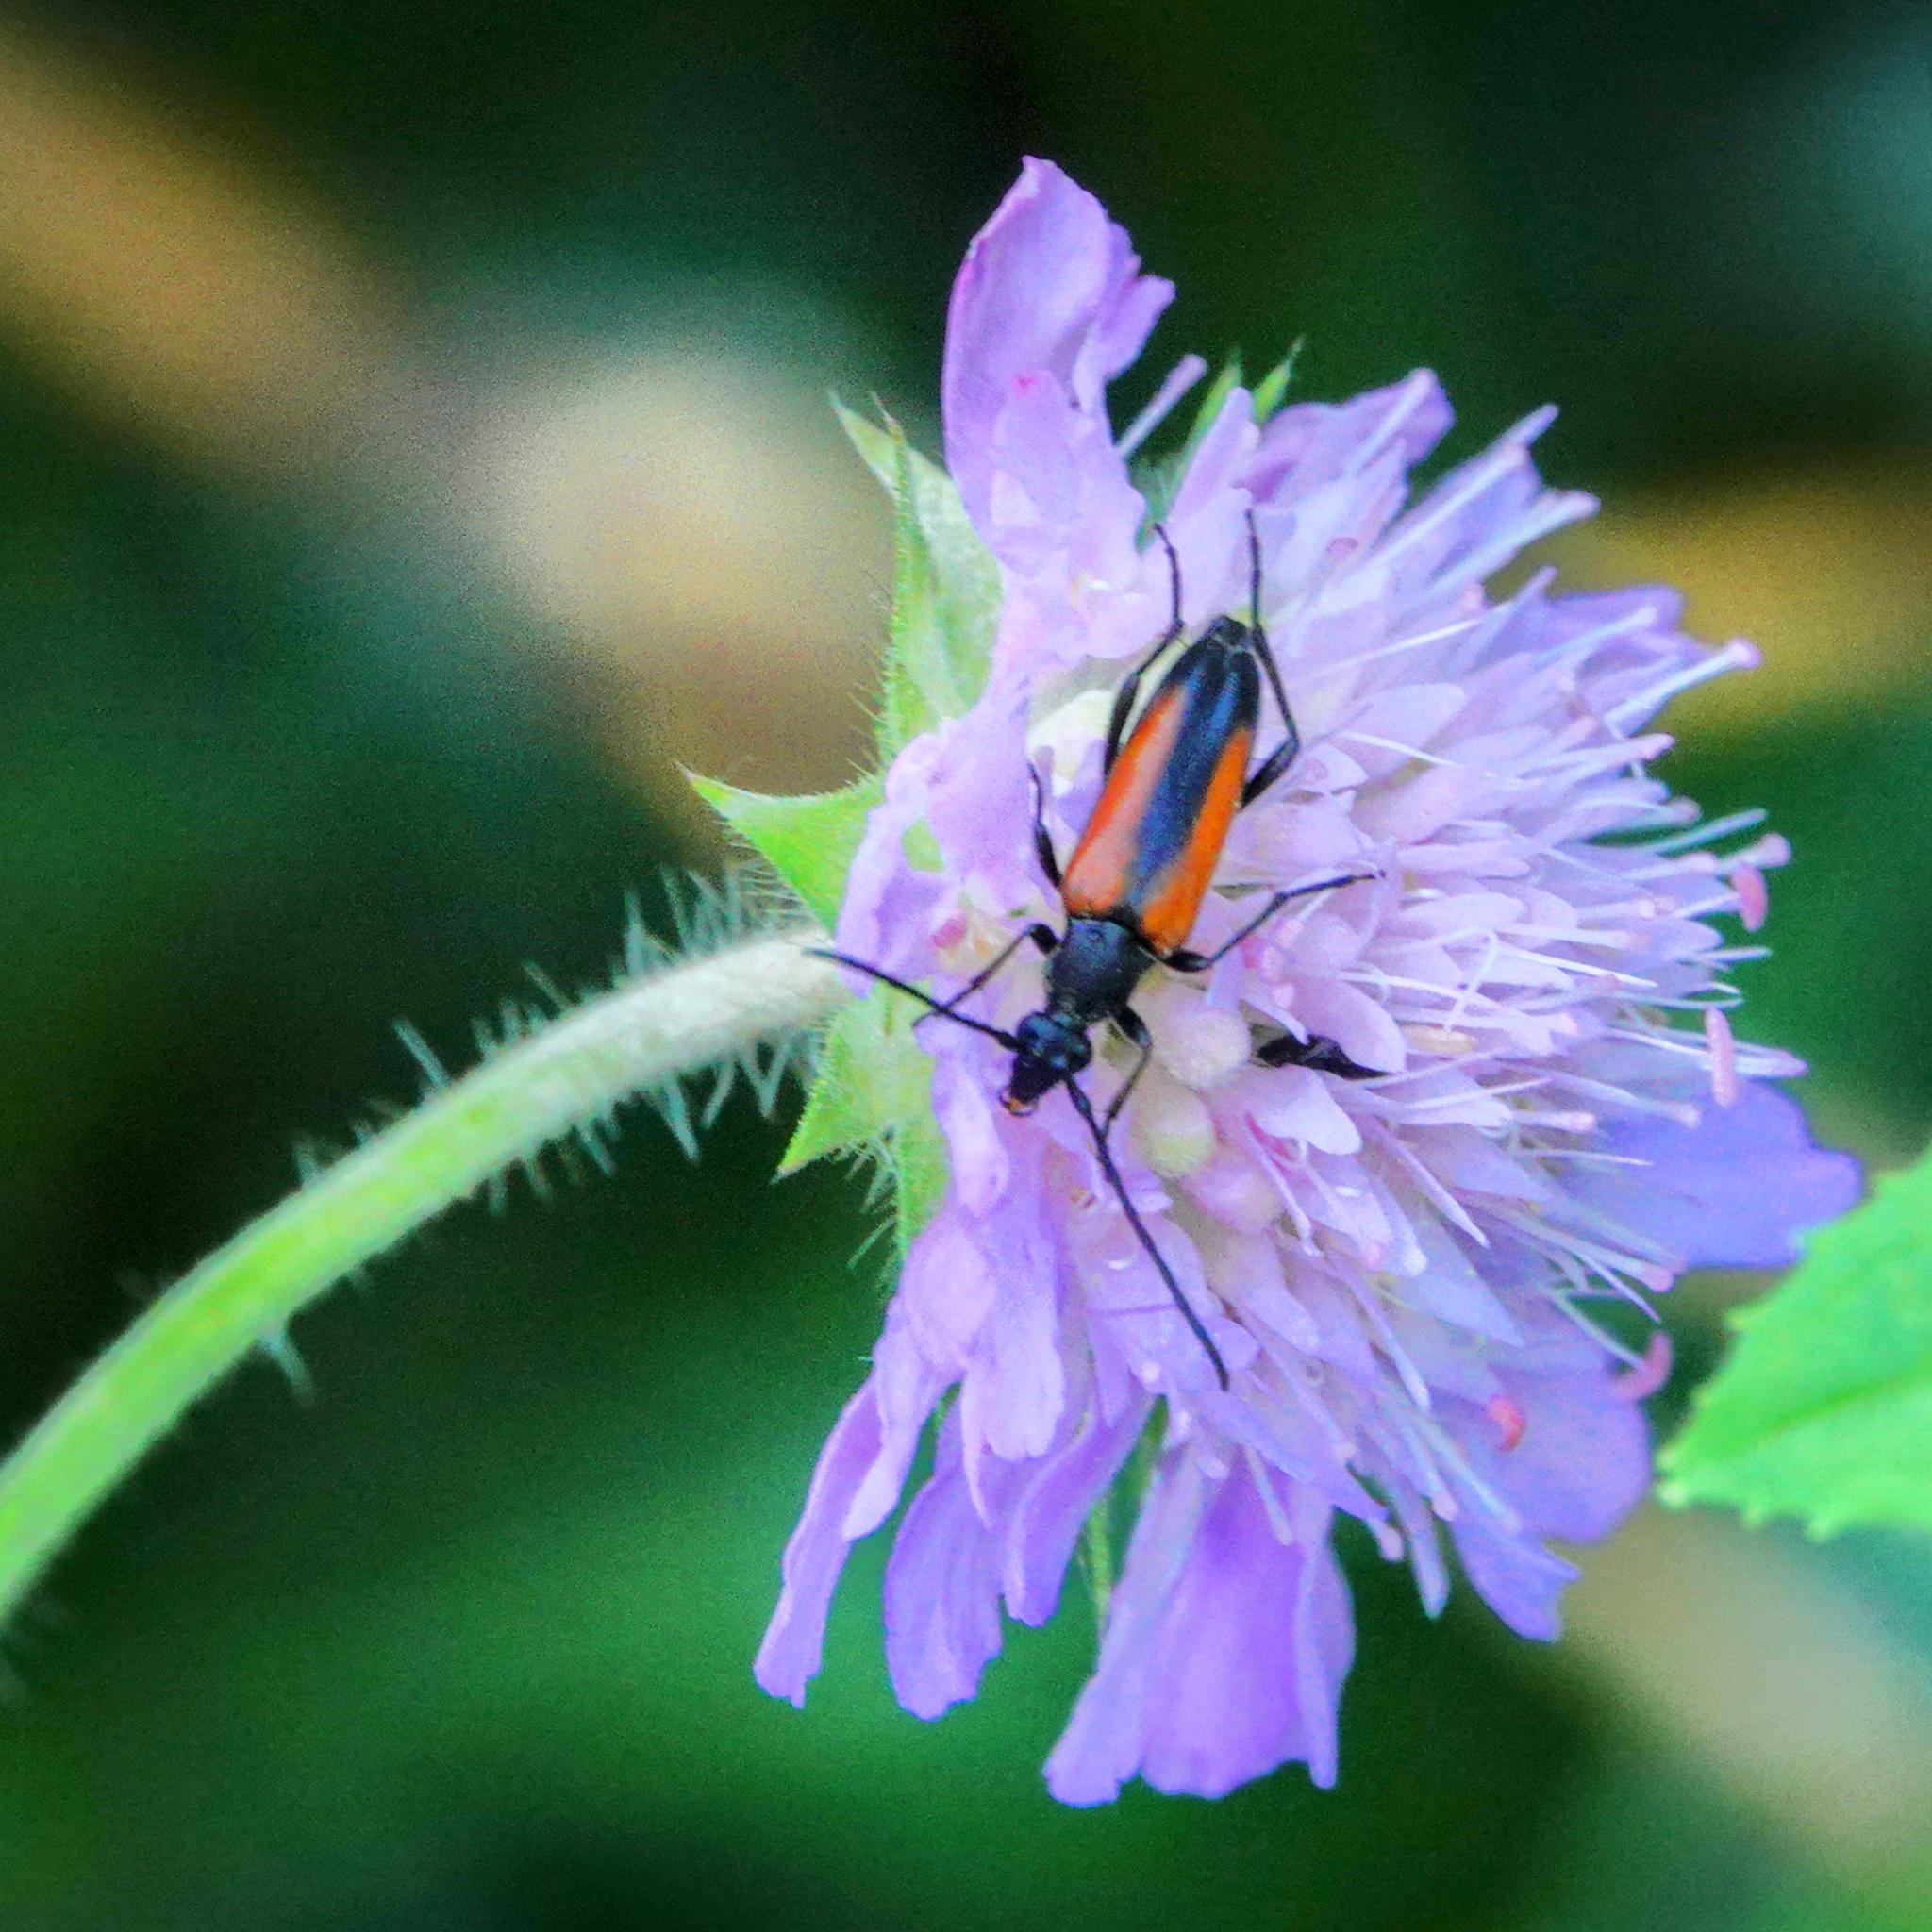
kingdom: Animalia
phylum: Arthropoda
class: Insecta
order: Coleoptera
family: Cerambycidae
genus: Stenurella
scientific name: Stenurella melanura
